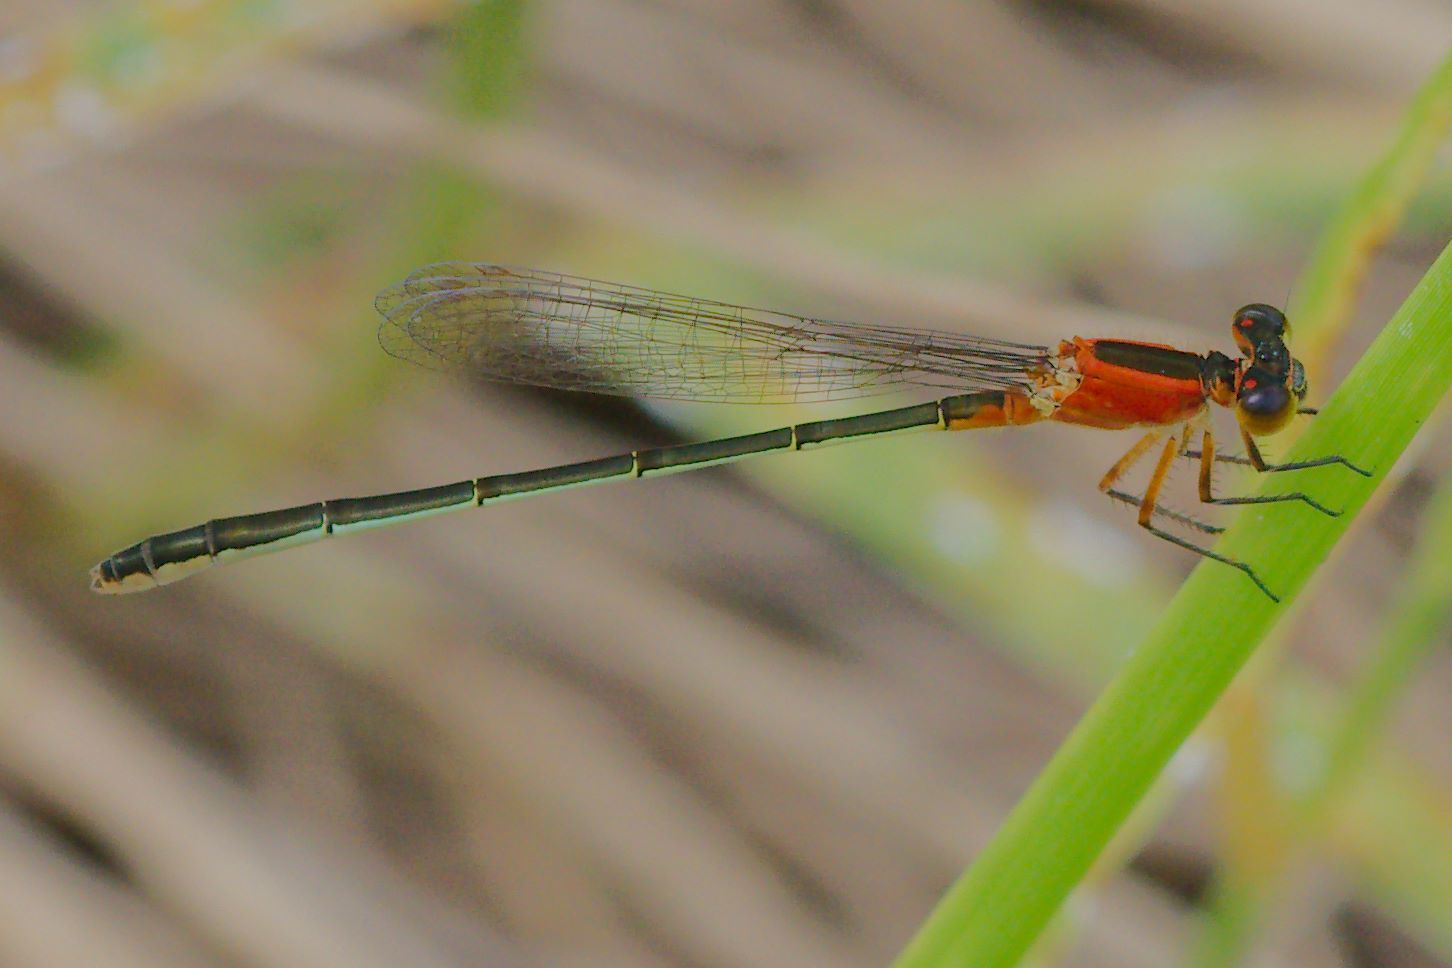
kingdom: Animalia
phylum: Arthropoda
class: Insecta
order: Odonata
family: Coenagrionidae
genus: Ischnura
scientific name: Ischnura ramburii
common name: Rambur's forktail
